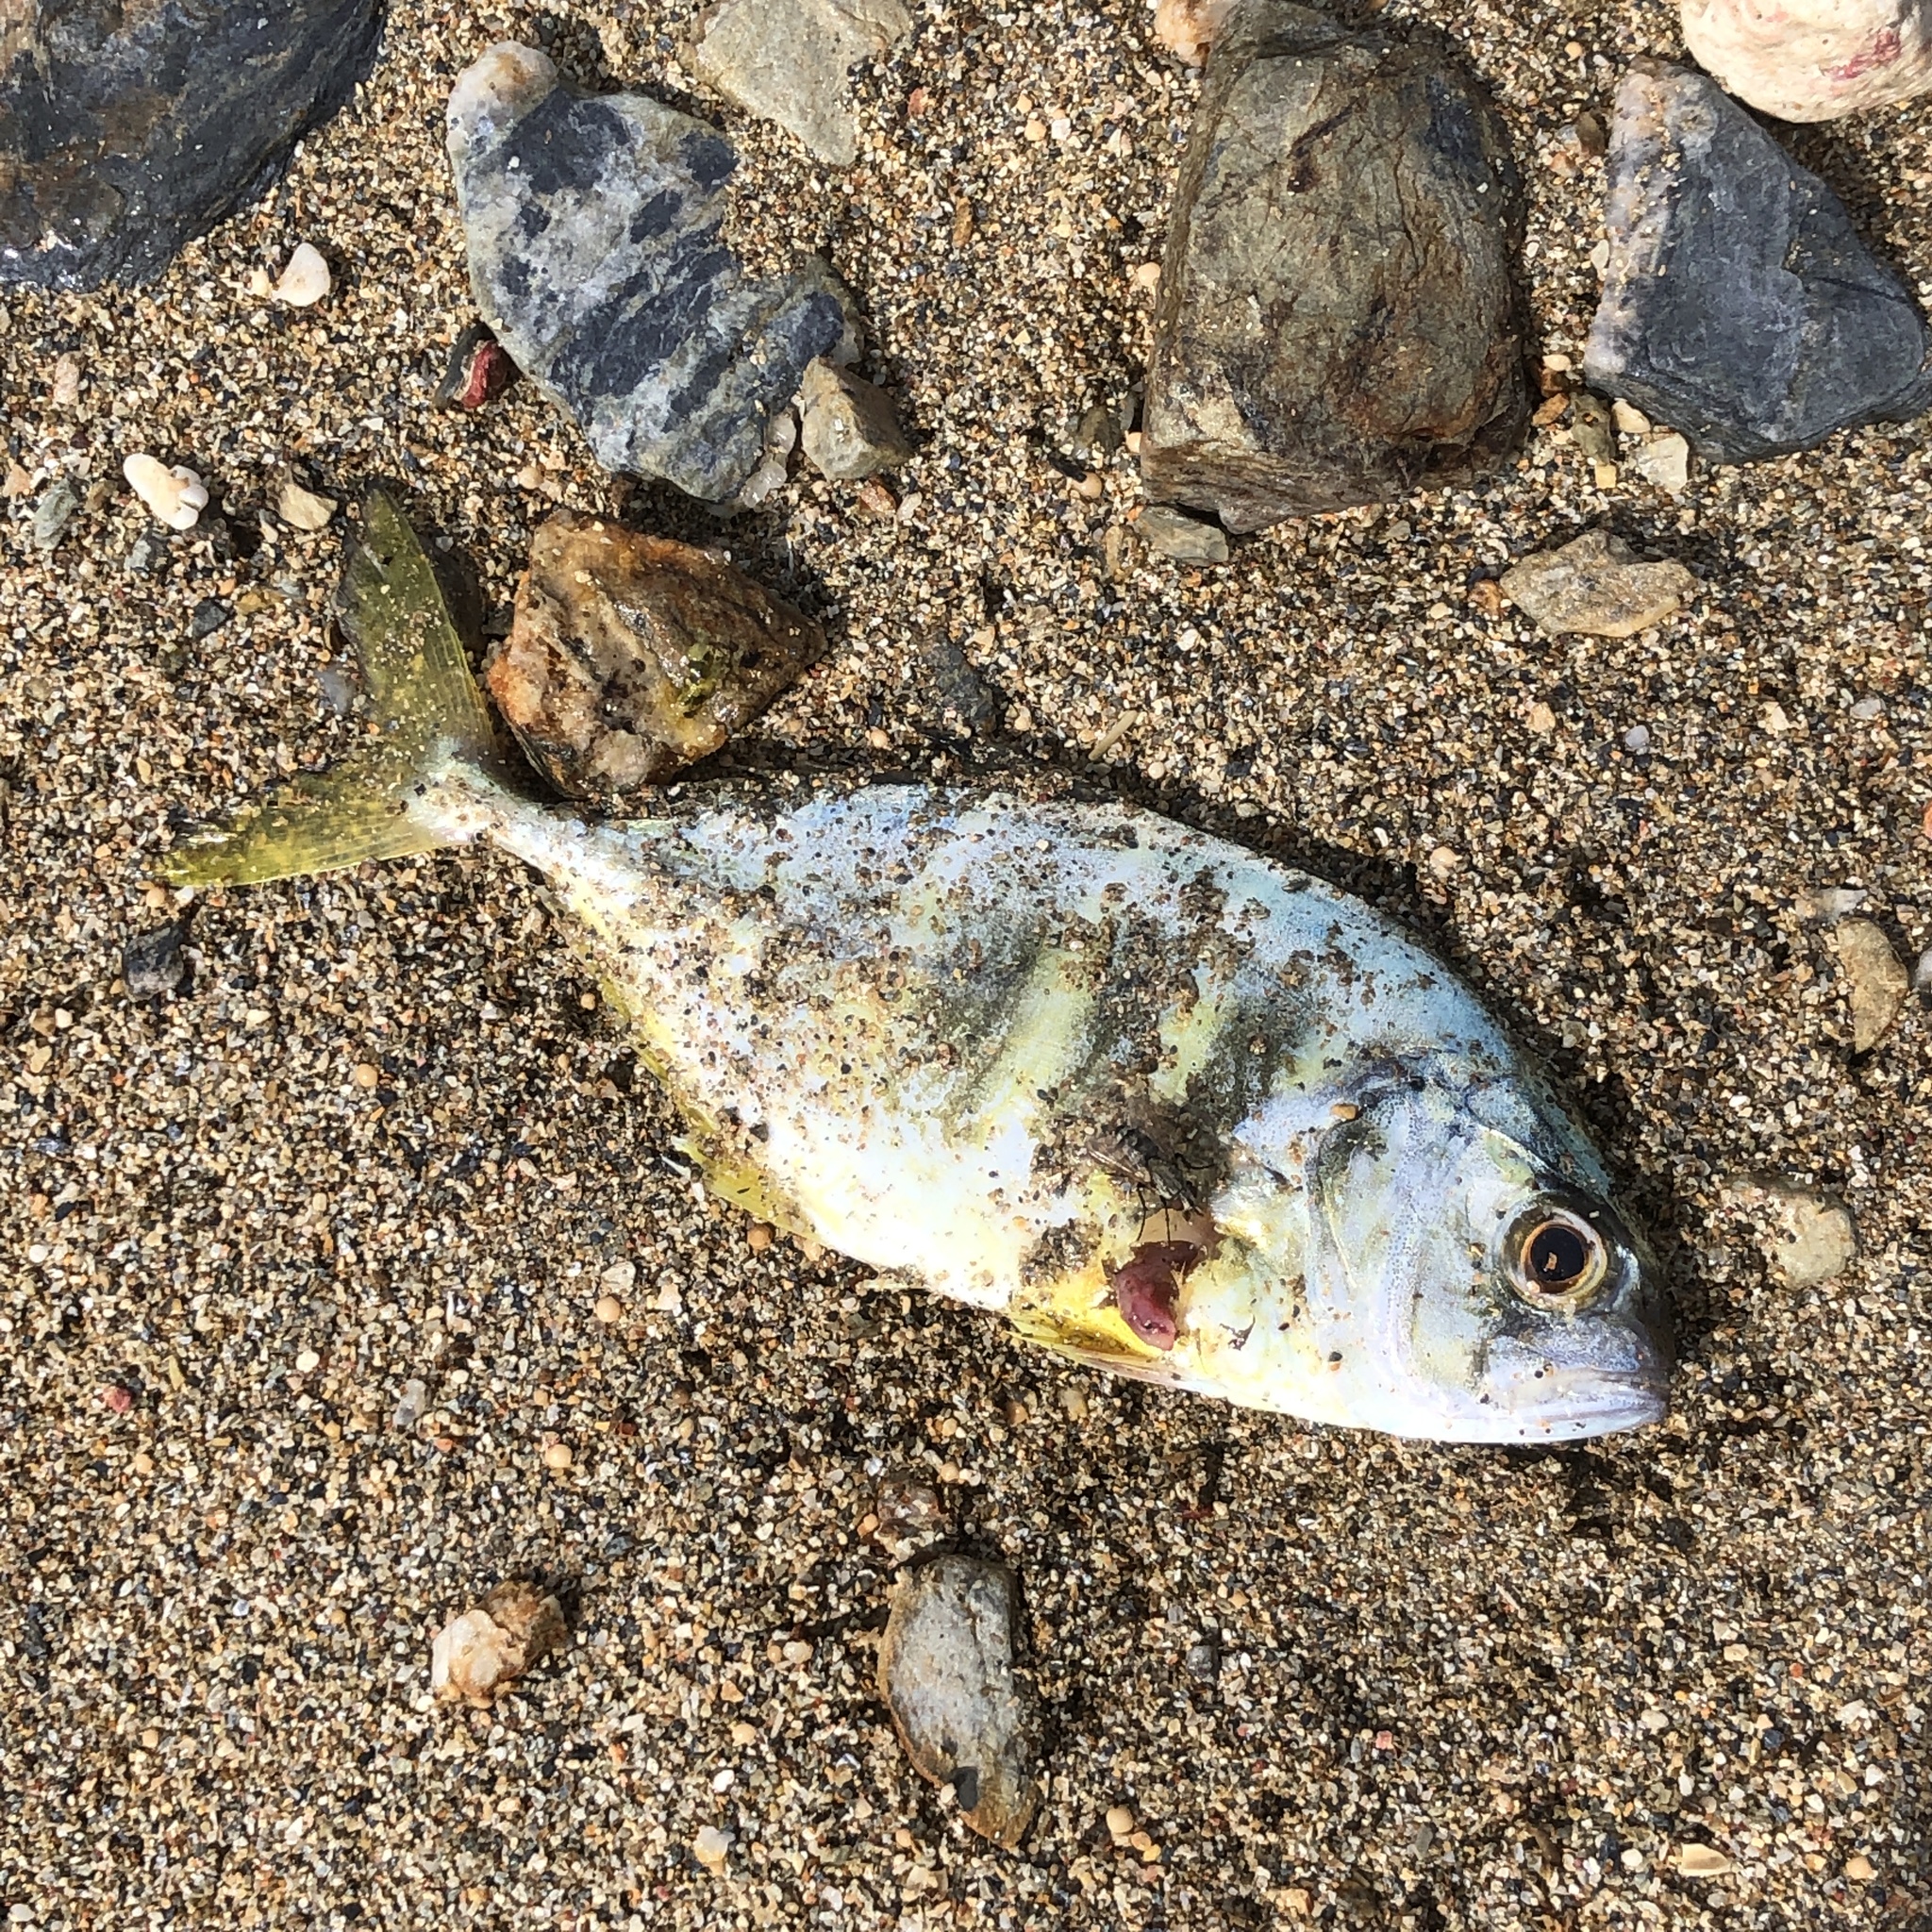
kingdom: Animalia
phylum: Chordata
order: Perciformes
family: Carangidae
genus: Caranx
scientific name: Caranx sexfasciatus
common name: Bigeye trevally
